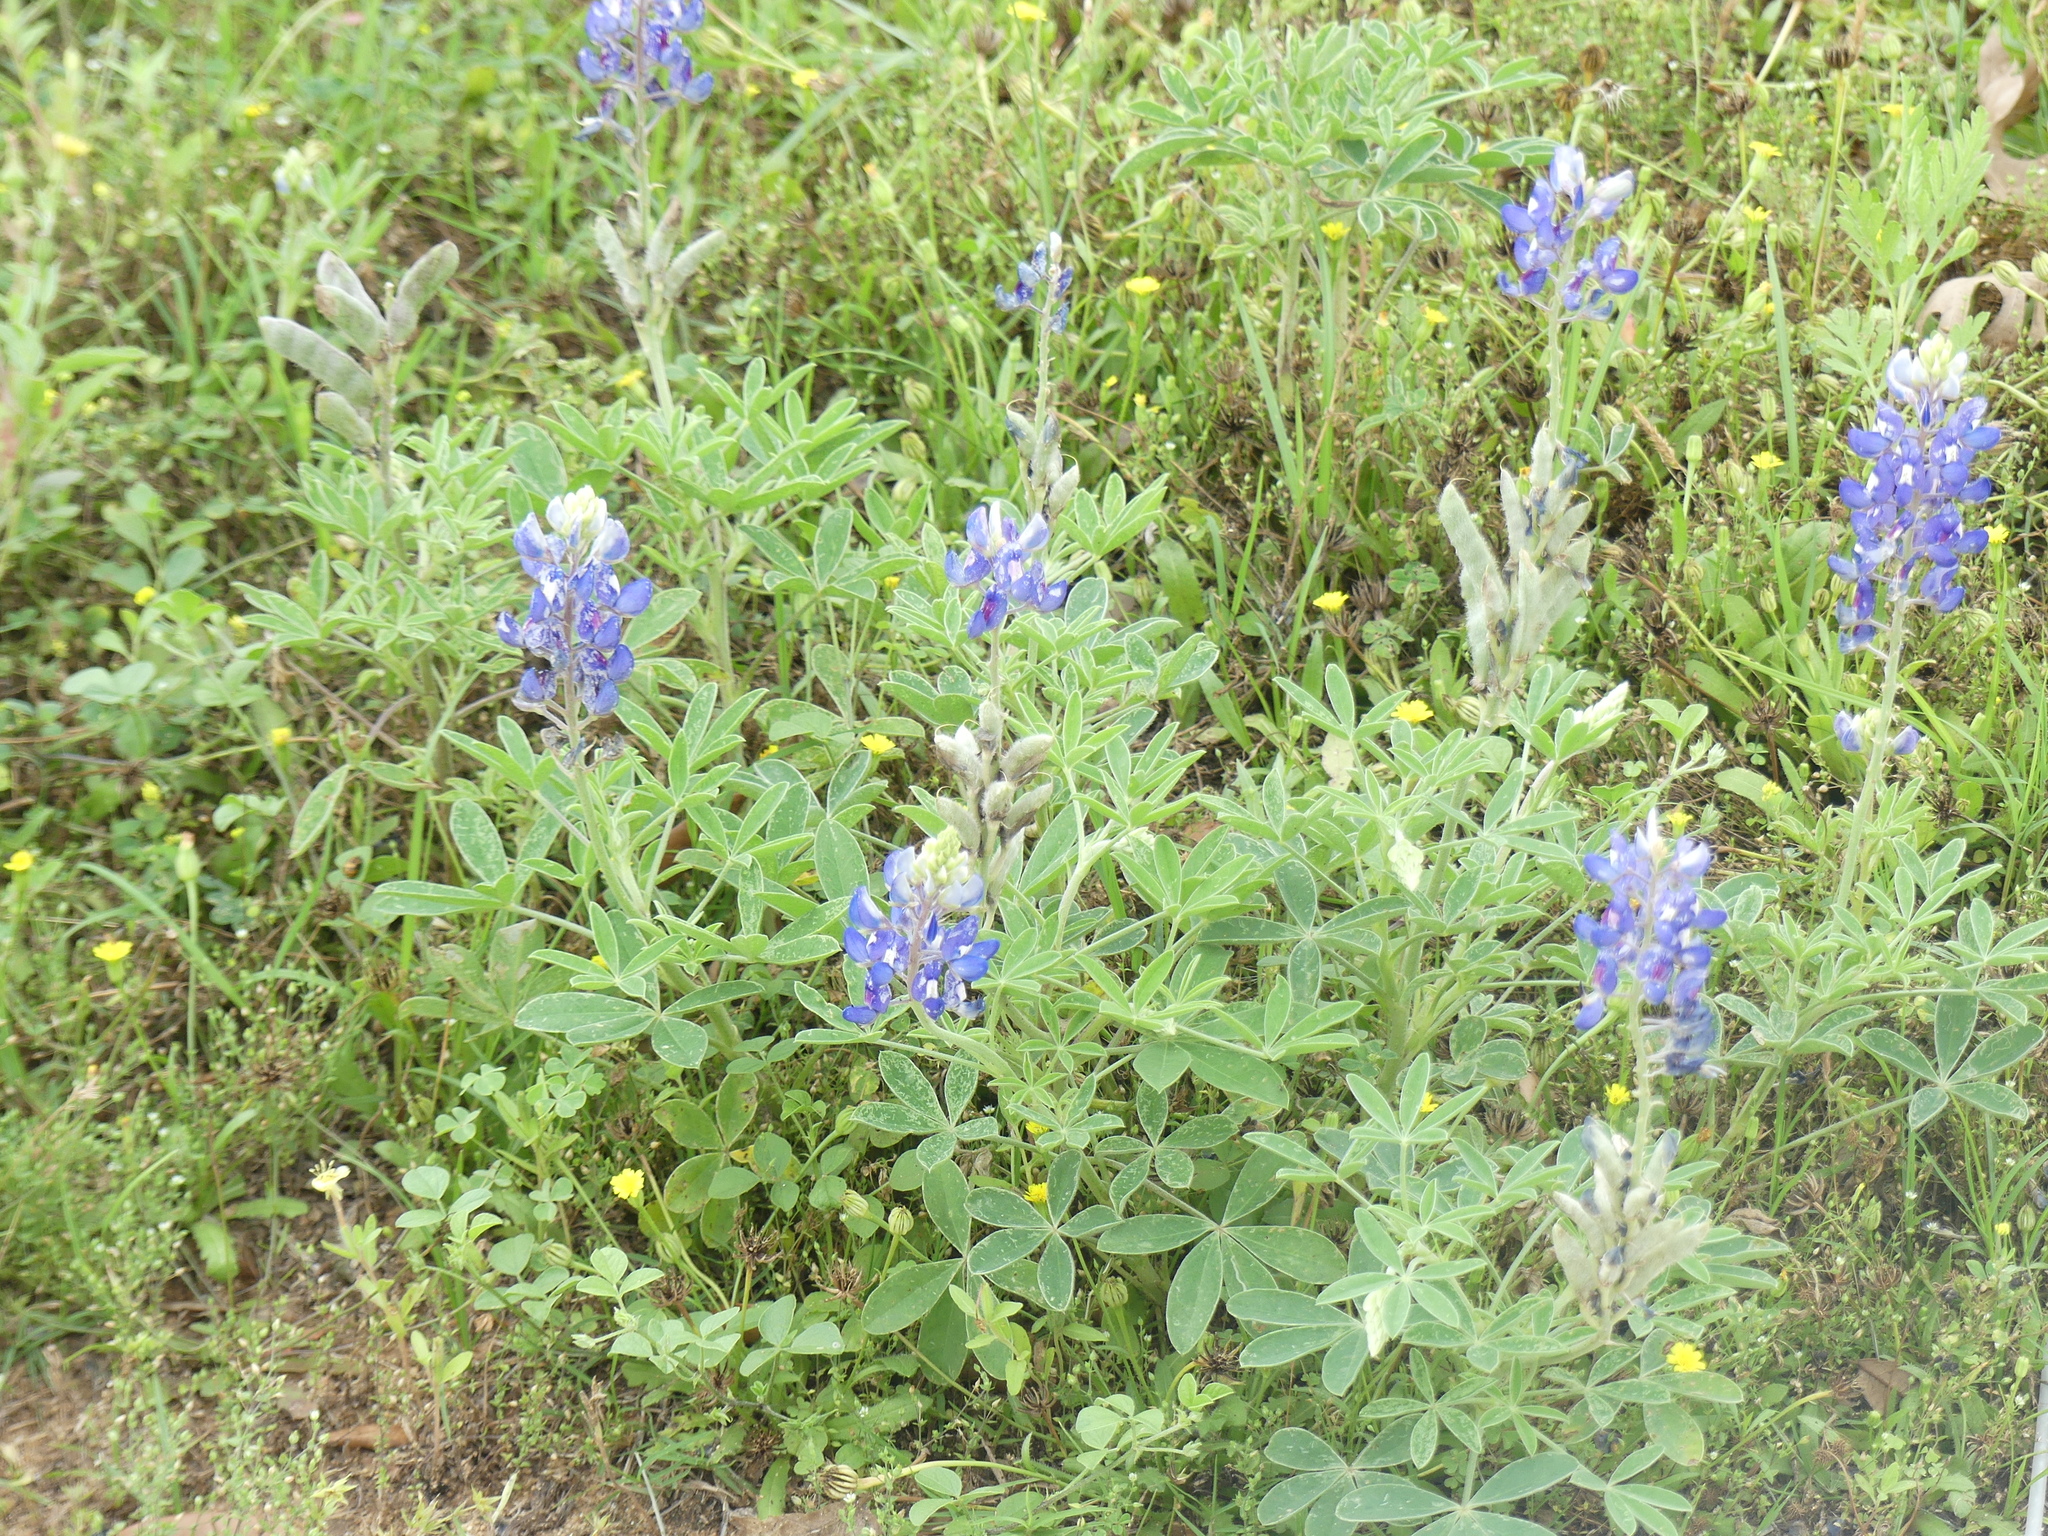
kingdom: Plantae
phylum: Tracheophyta
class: Magnoliopsida
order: Fabales
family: Fabaceae
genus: Lupinus
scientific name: Lupinus texensis
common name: Texas bluebonnet
